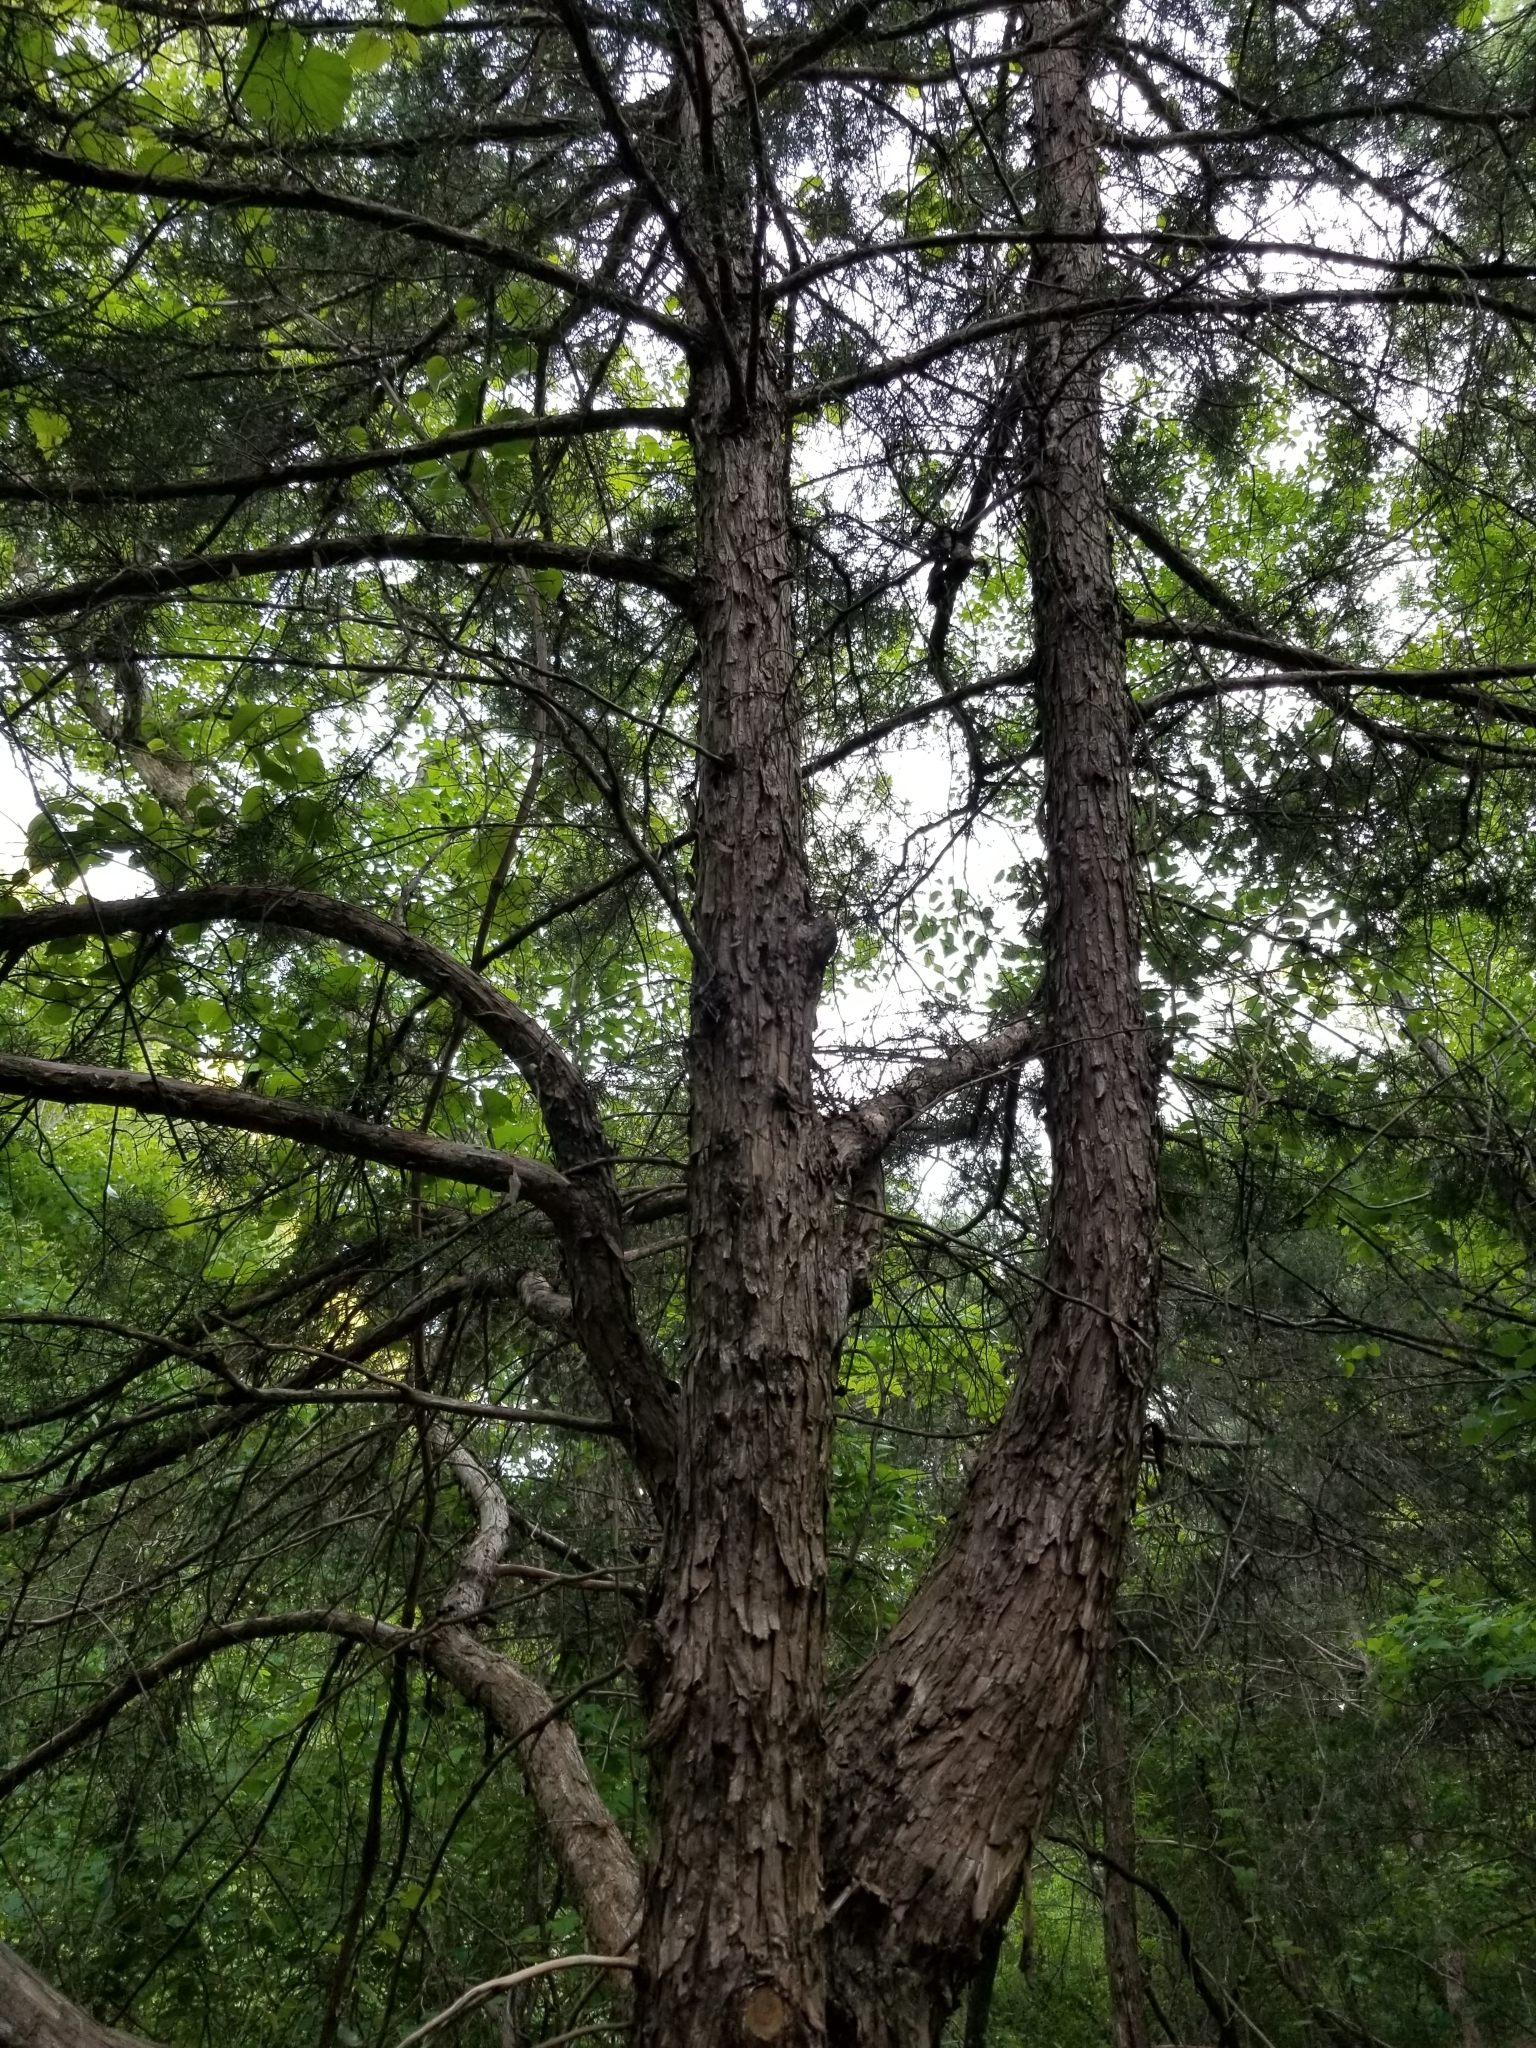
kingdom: Plantae
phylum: Tracheophyta
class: Pinopsida
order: Pinales
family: Cupressaceae
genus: Juniperus
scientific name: Juniperus virginiana
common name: Red juniper
